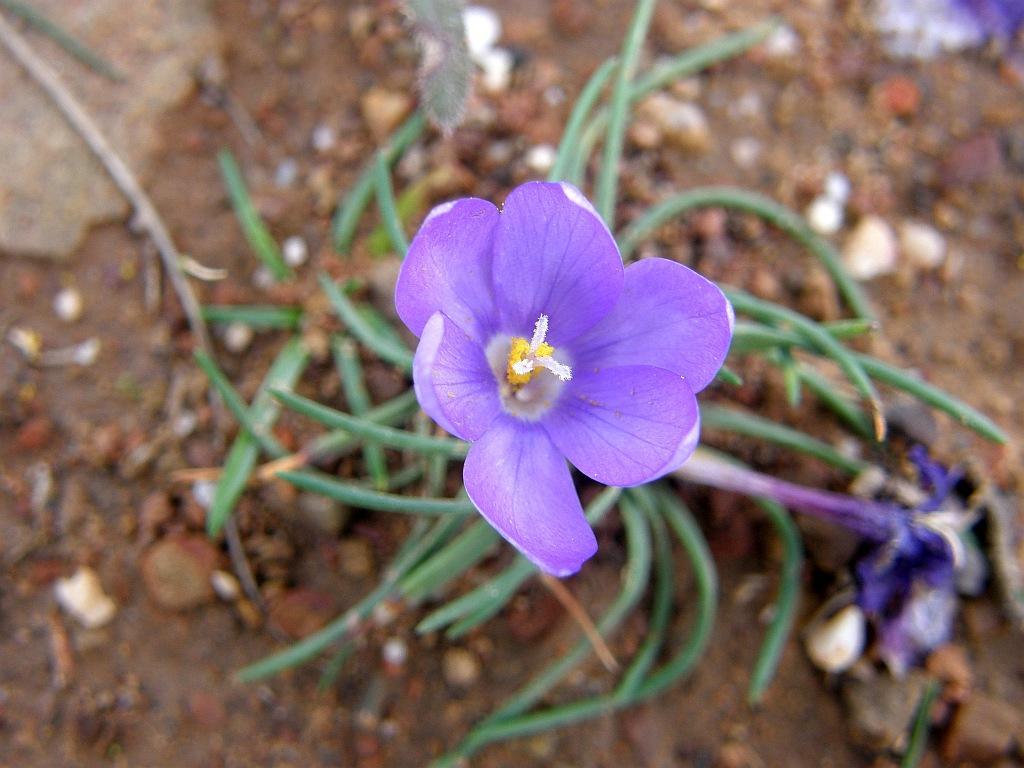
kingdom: Plantae
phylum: Tracheophyta
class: Liliopsida
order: Asparagales
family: Iridaceae
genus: Syringodea
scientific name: Syringodea longituba
